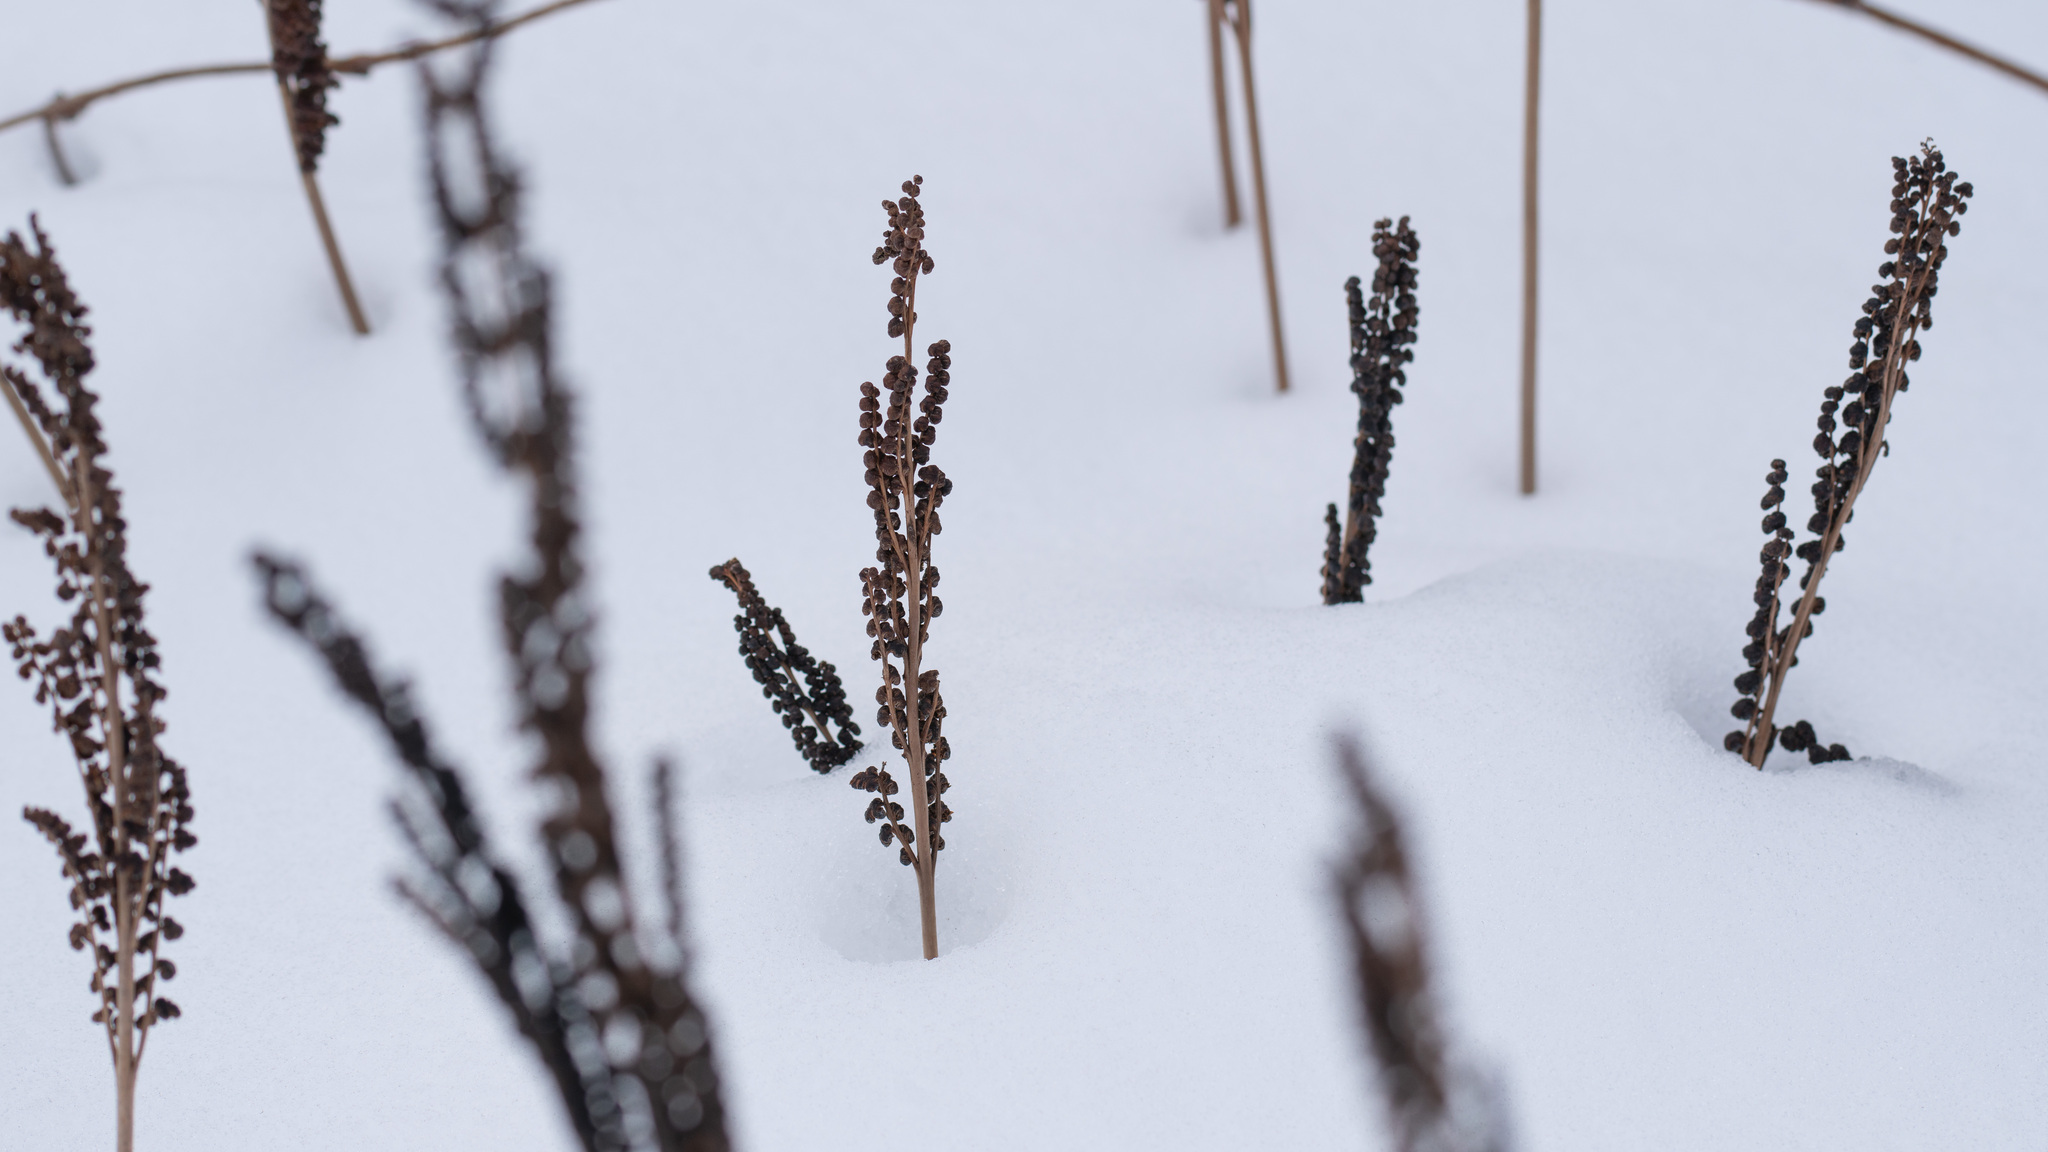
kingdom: Plantae
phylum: Tracheophyta
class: Polypodiopsida
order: Polypodiales
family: Onocleaceae
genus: Onoclea
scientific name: Onoclea sensibilis
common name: Sensitive fern
